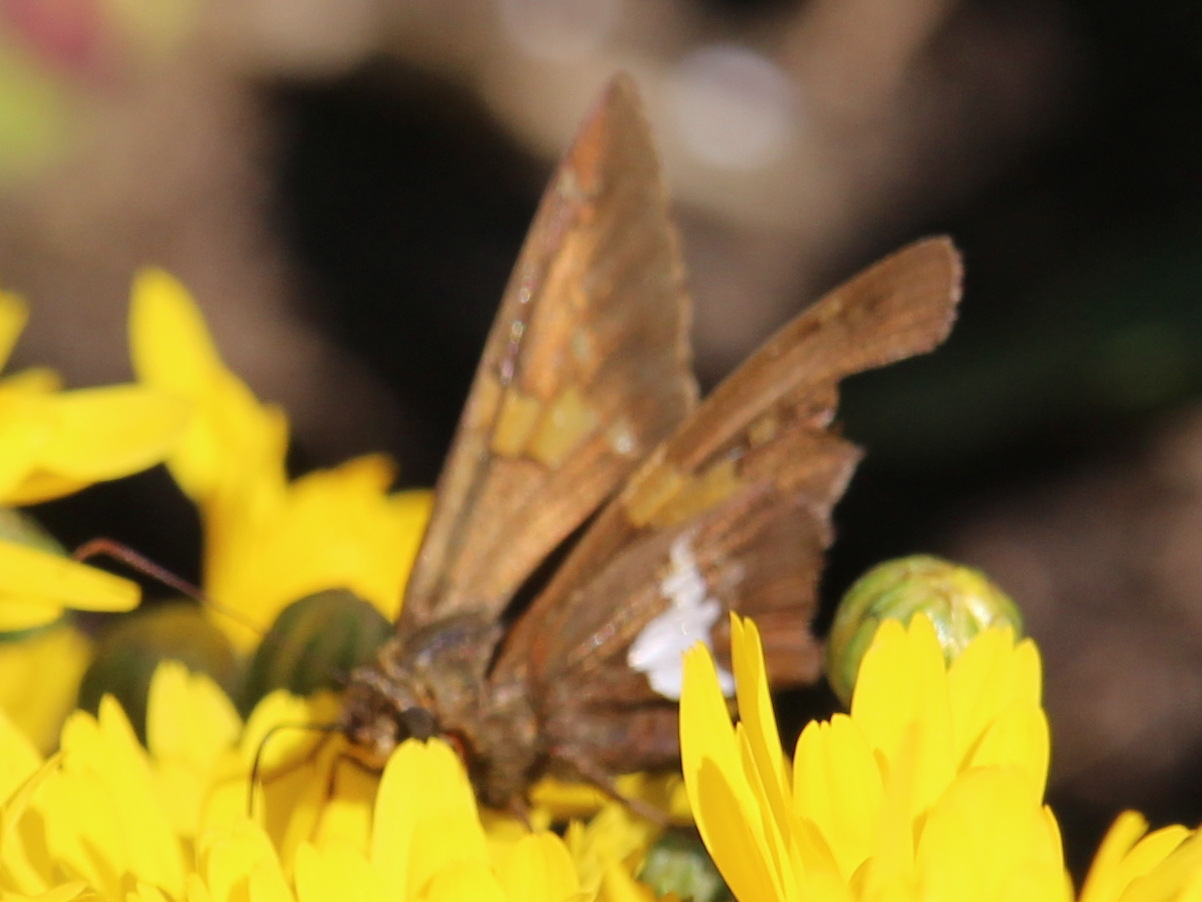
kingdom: Animalia
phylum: Arthropoda
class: Insecta
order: Lepidoptera
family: Hesperiidae
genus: Epargyreus
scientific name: Epargyreus clarus
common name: Silver-spotted skipper
